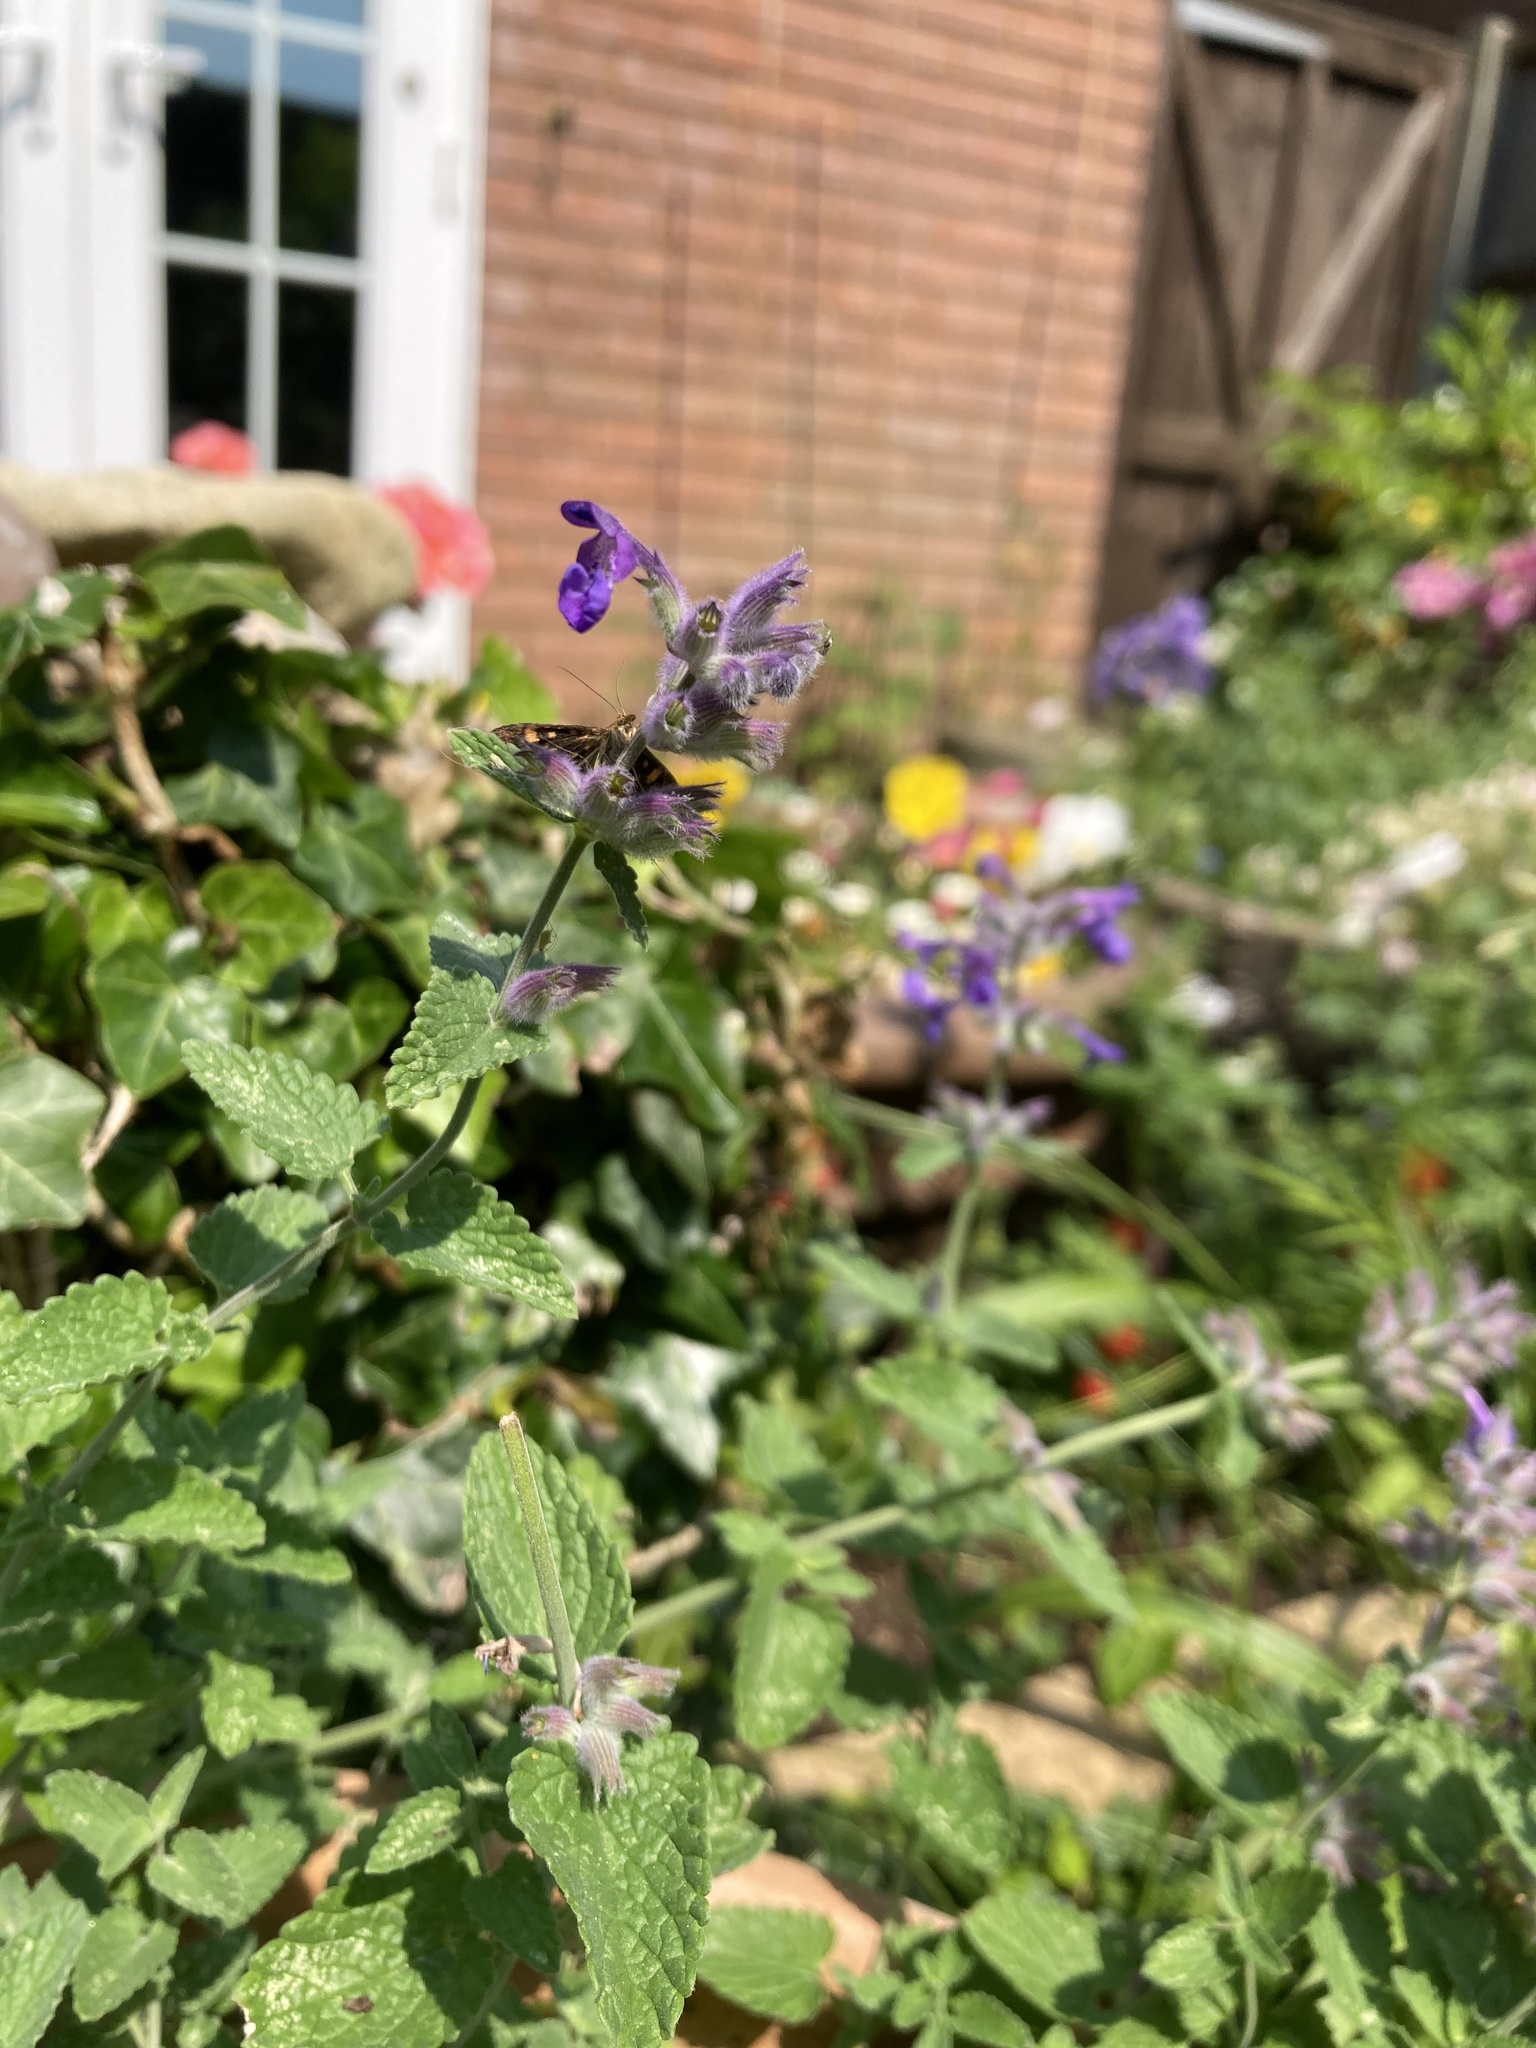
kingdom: Animalia
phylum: Arthropoda
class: Insecta
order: Lepidoptera
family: Crambidae
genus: Pyrausta
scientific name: Pyrausta aurata
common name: Small purple & gold
